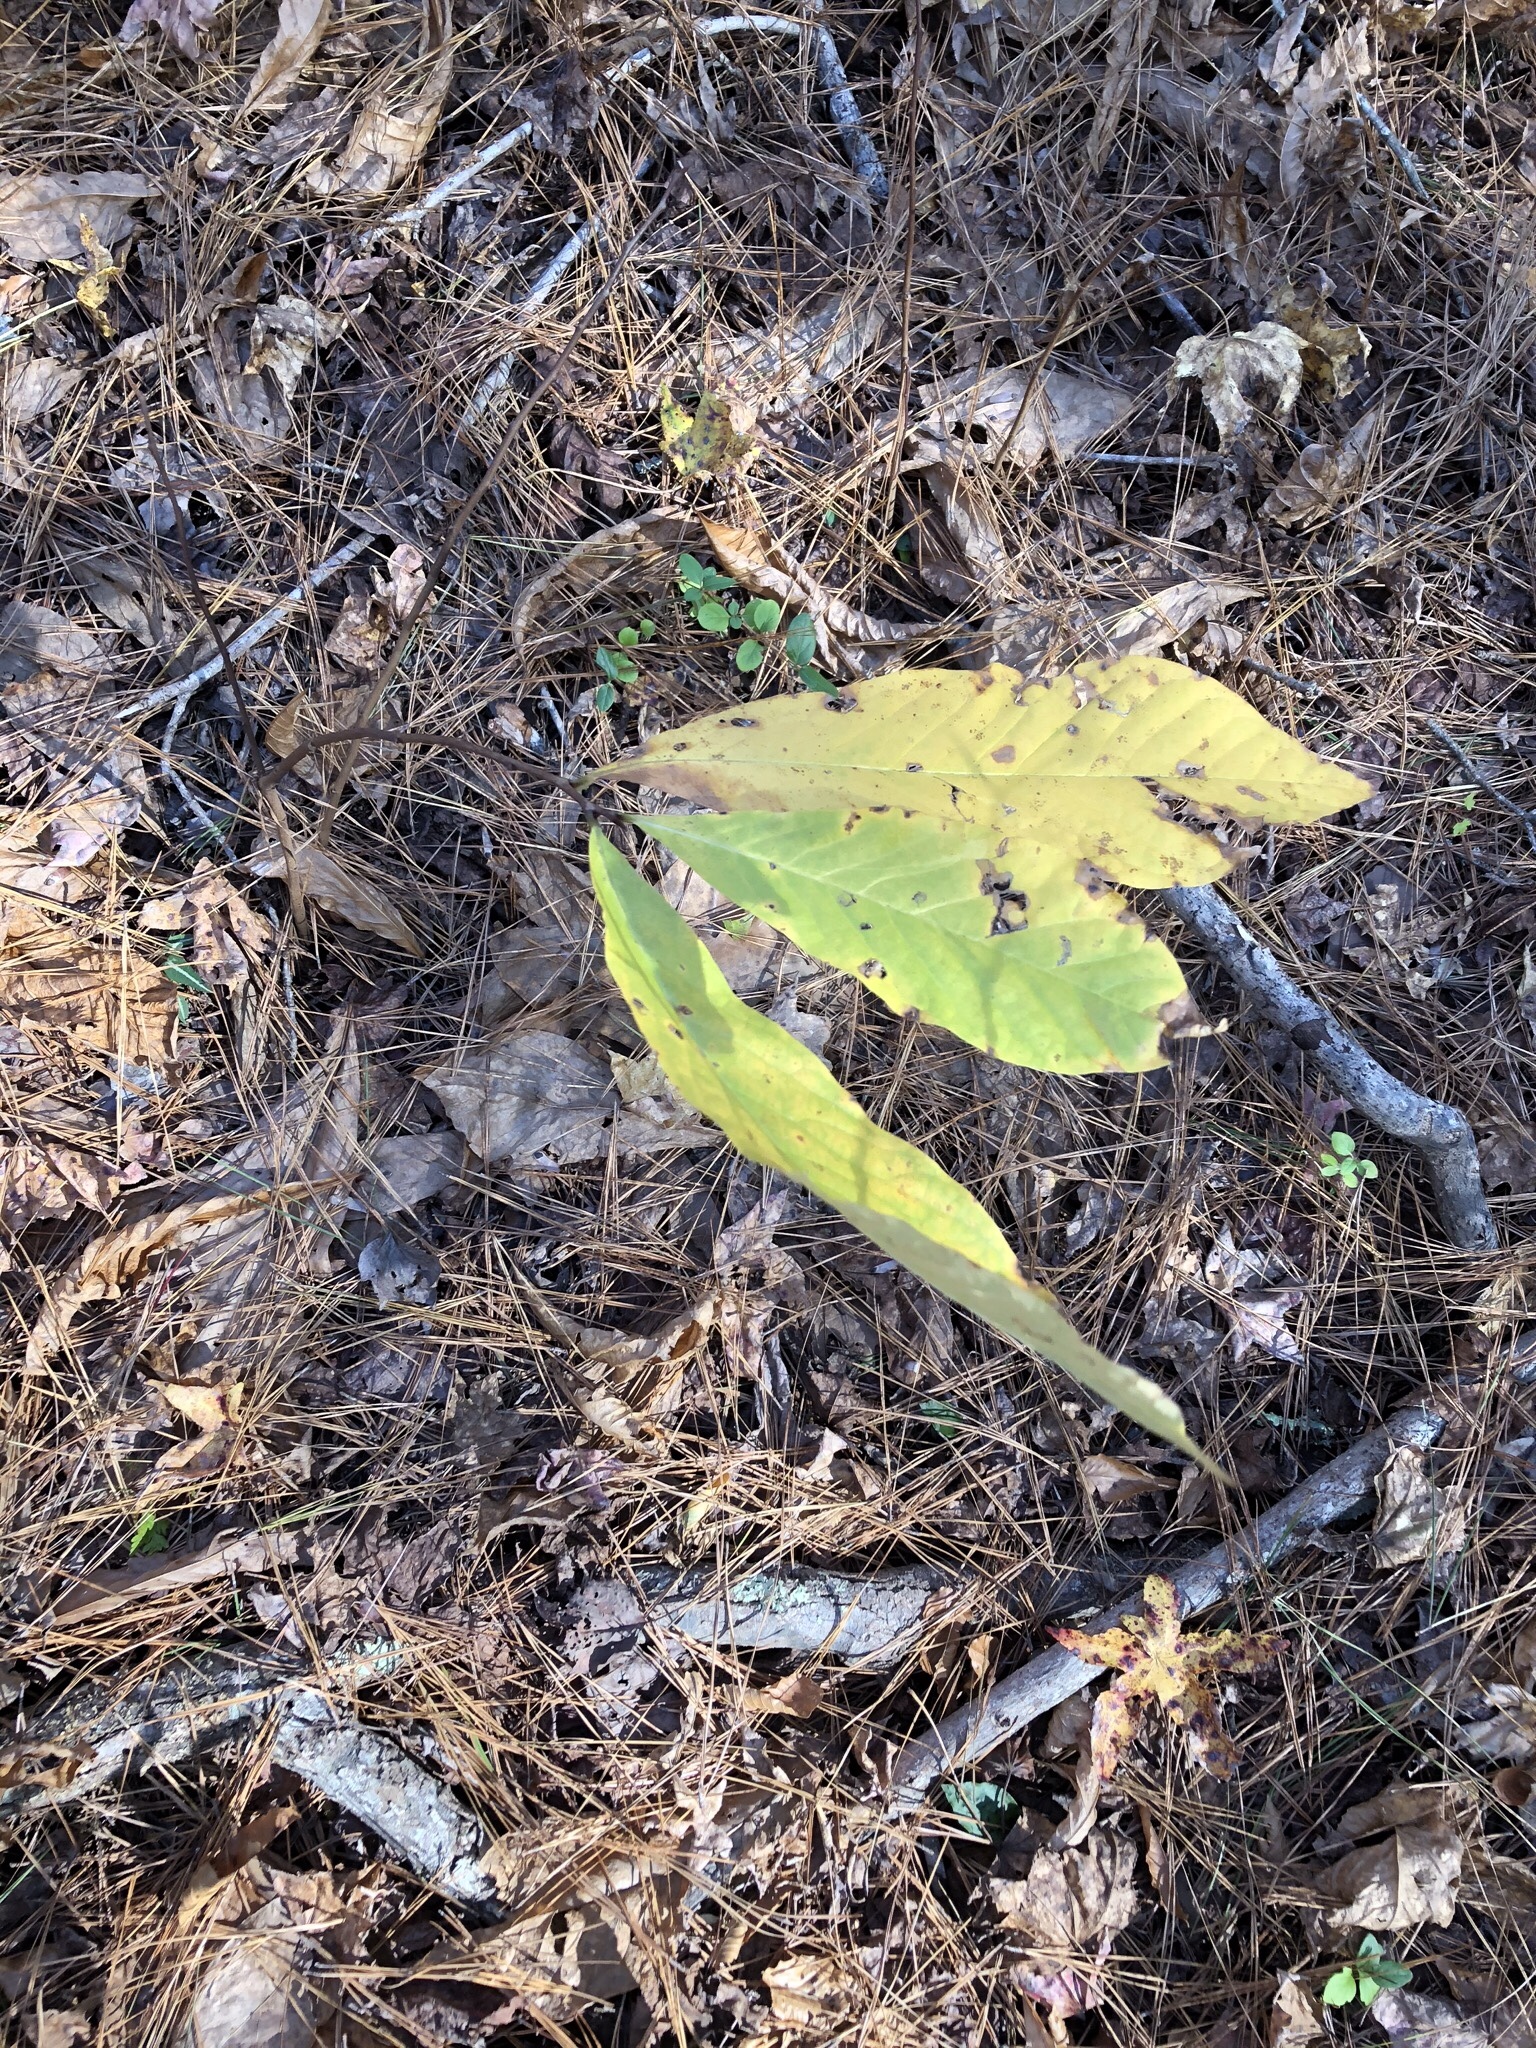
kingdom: Plantae
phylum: Tracheophyta
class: Magnoliopsida
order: Magnoliales
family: Annonaceae
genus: Asimina
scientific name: Asimina triloba
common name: Dog-banana
